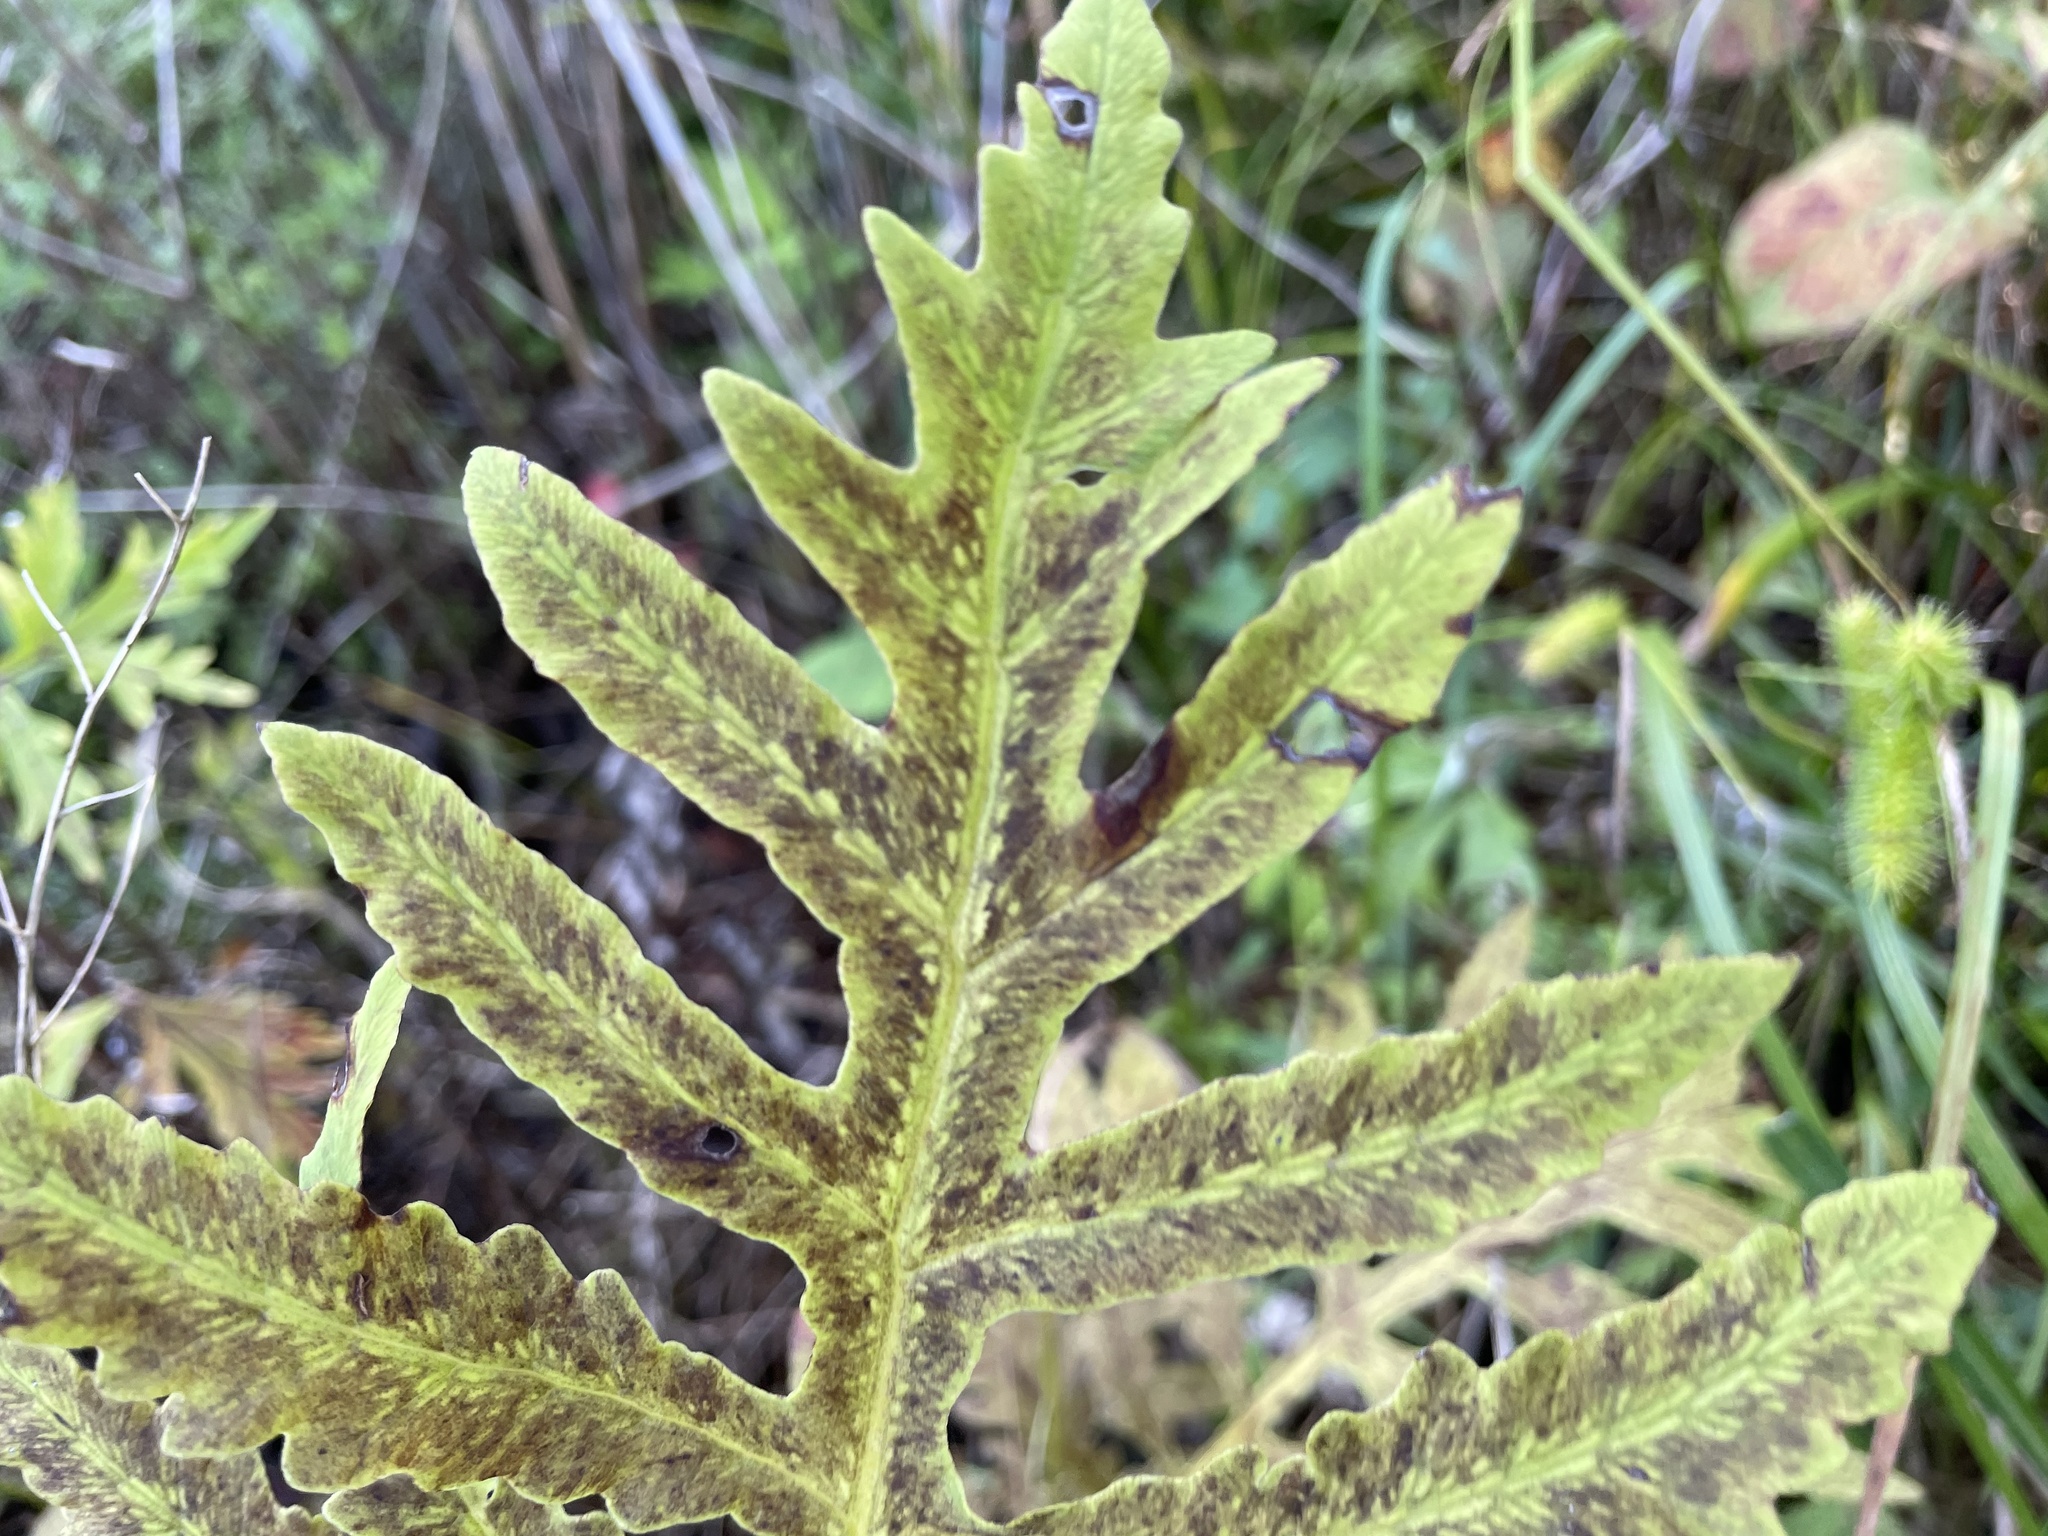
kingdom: Plantae
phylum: Tracheophyta
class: Polypodiopsida
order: Polypodiales
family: Onocleaceae
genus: Onoclea
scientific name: Onoclea sensibilis
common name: Sensitive fern
